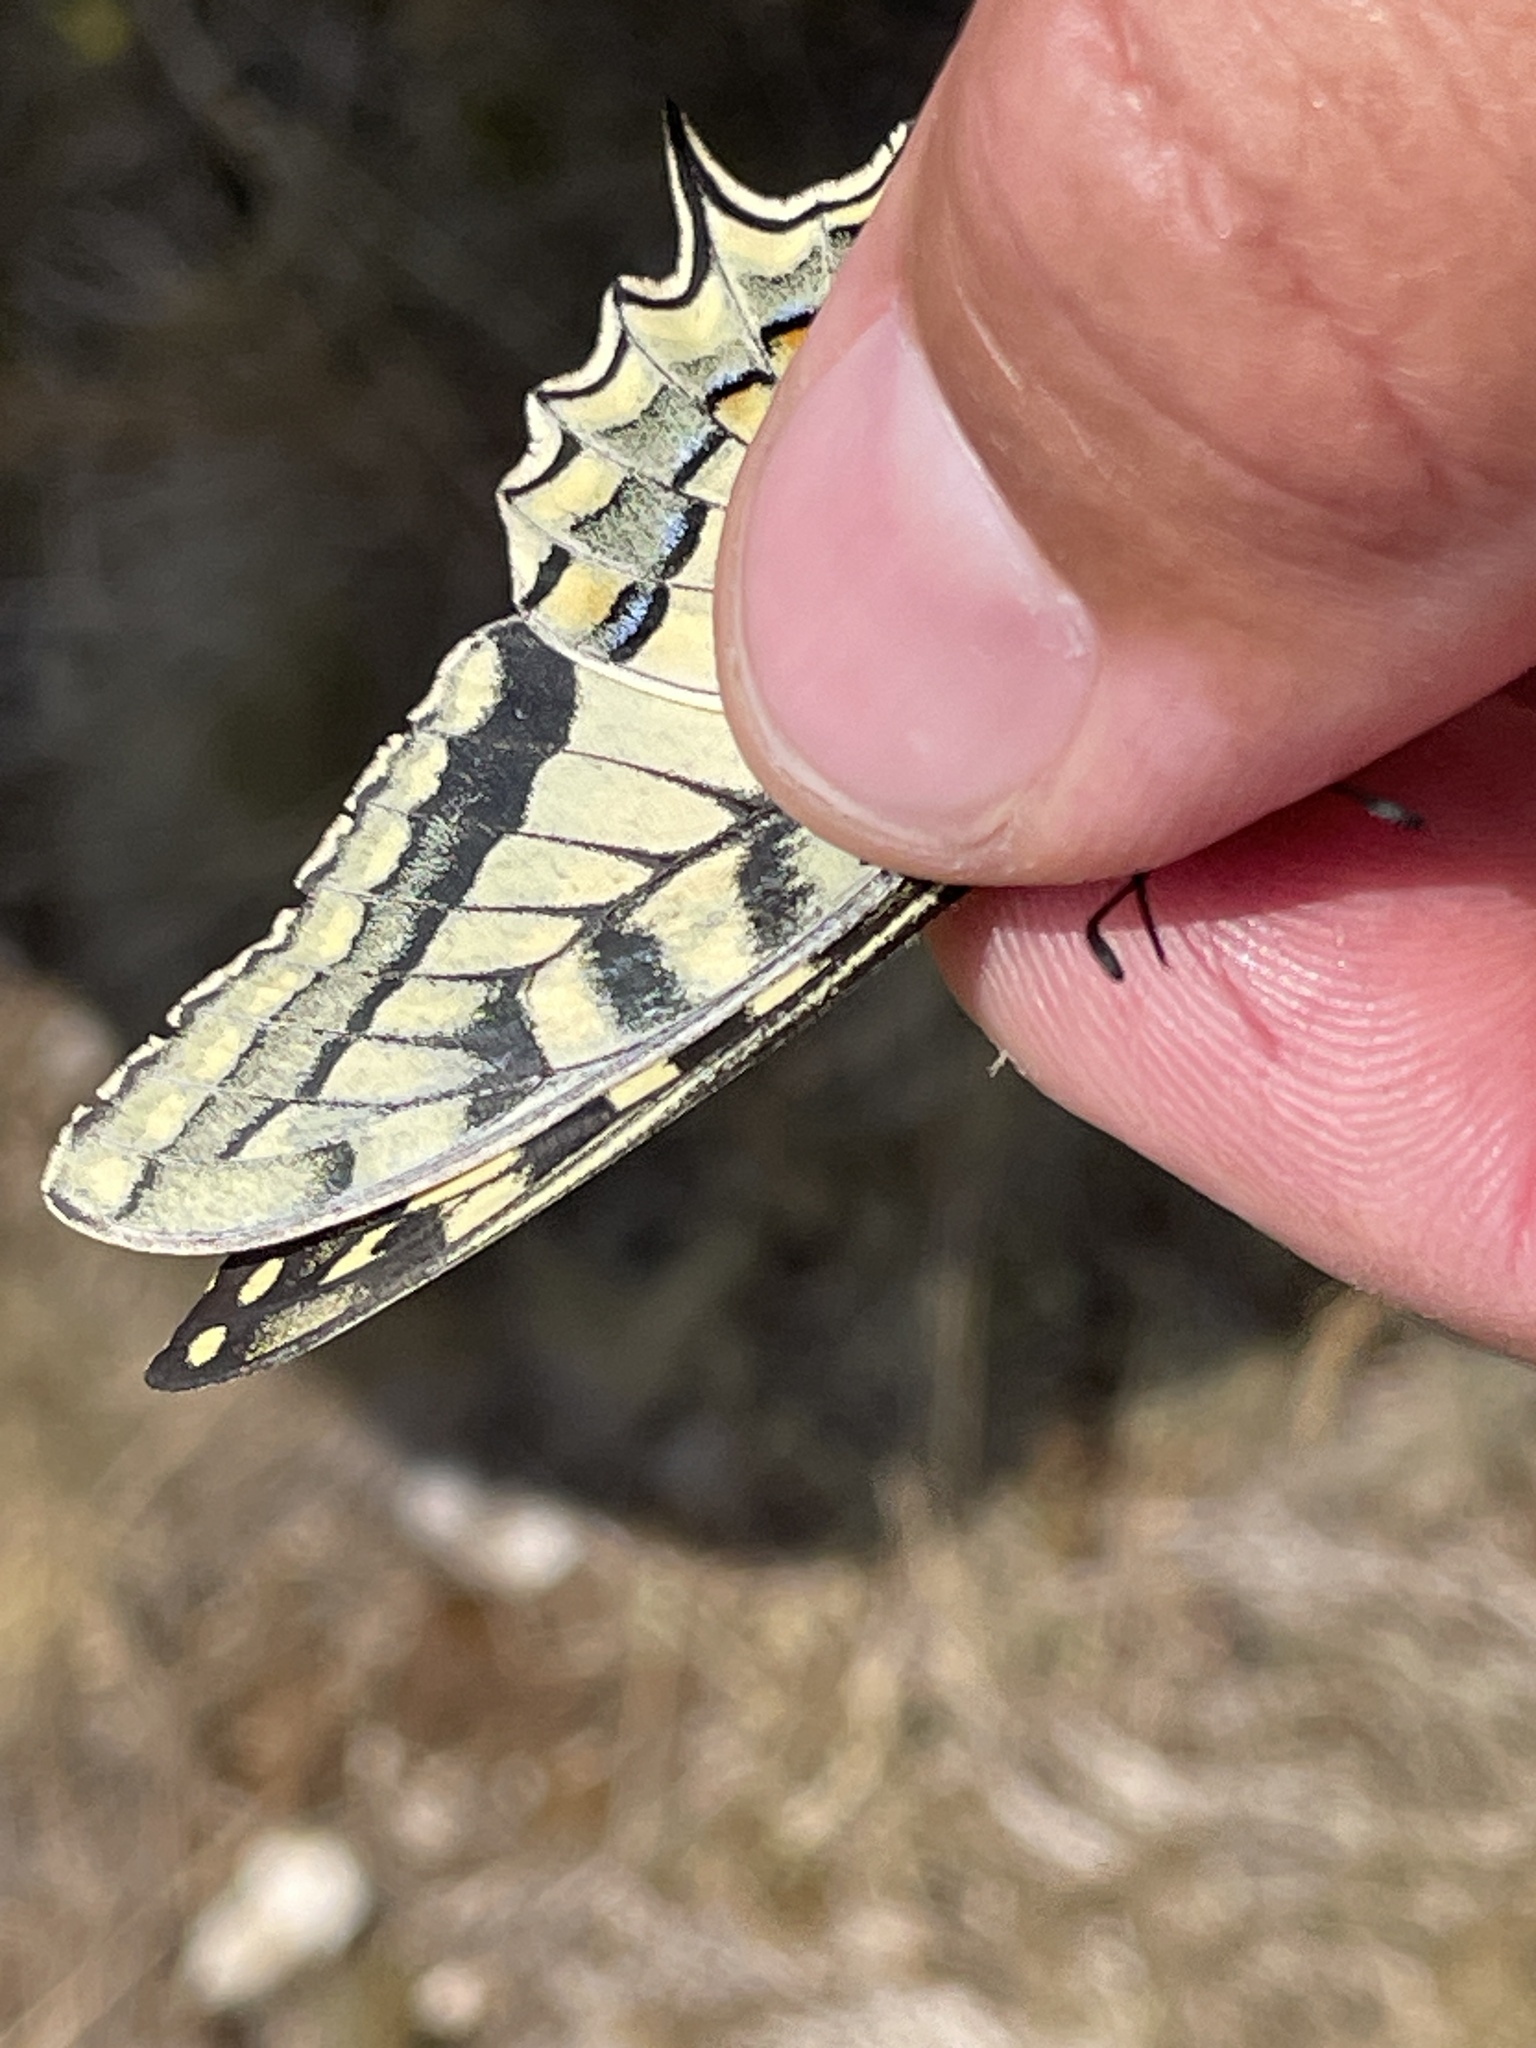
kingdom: Animalia
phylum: Arthropoda
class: Insecta
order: Lepidoptera
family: Papilionidae
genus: Papilio
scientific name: Papilio machaon
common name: Swallowtail
